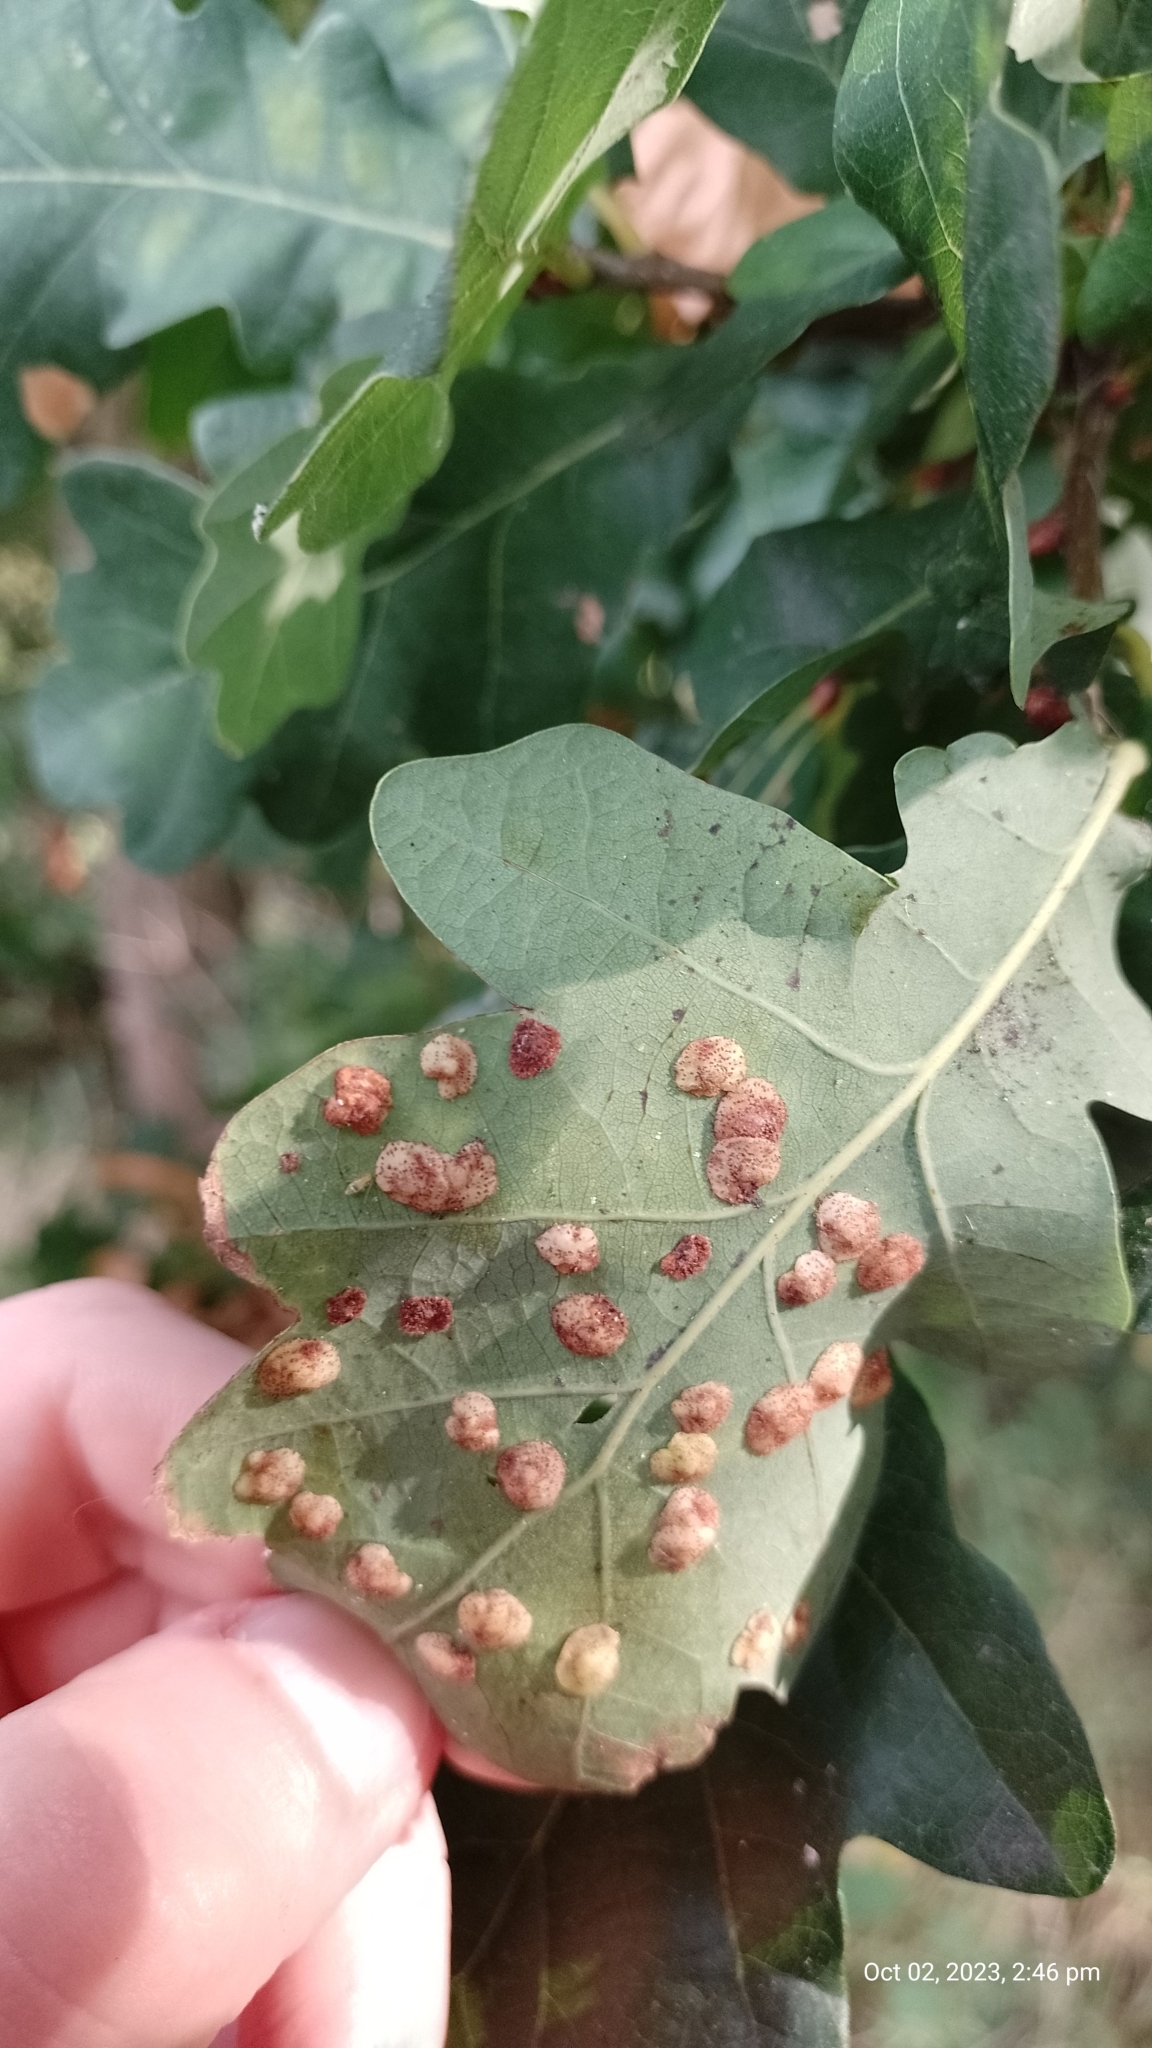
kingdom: Animalia
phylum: Arthropoda
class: Insecta
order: Hymenoptera
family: Cynipidae
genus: Neuroterus
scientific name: Neuroterus quercusbaccarum
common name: Common spangle gall
